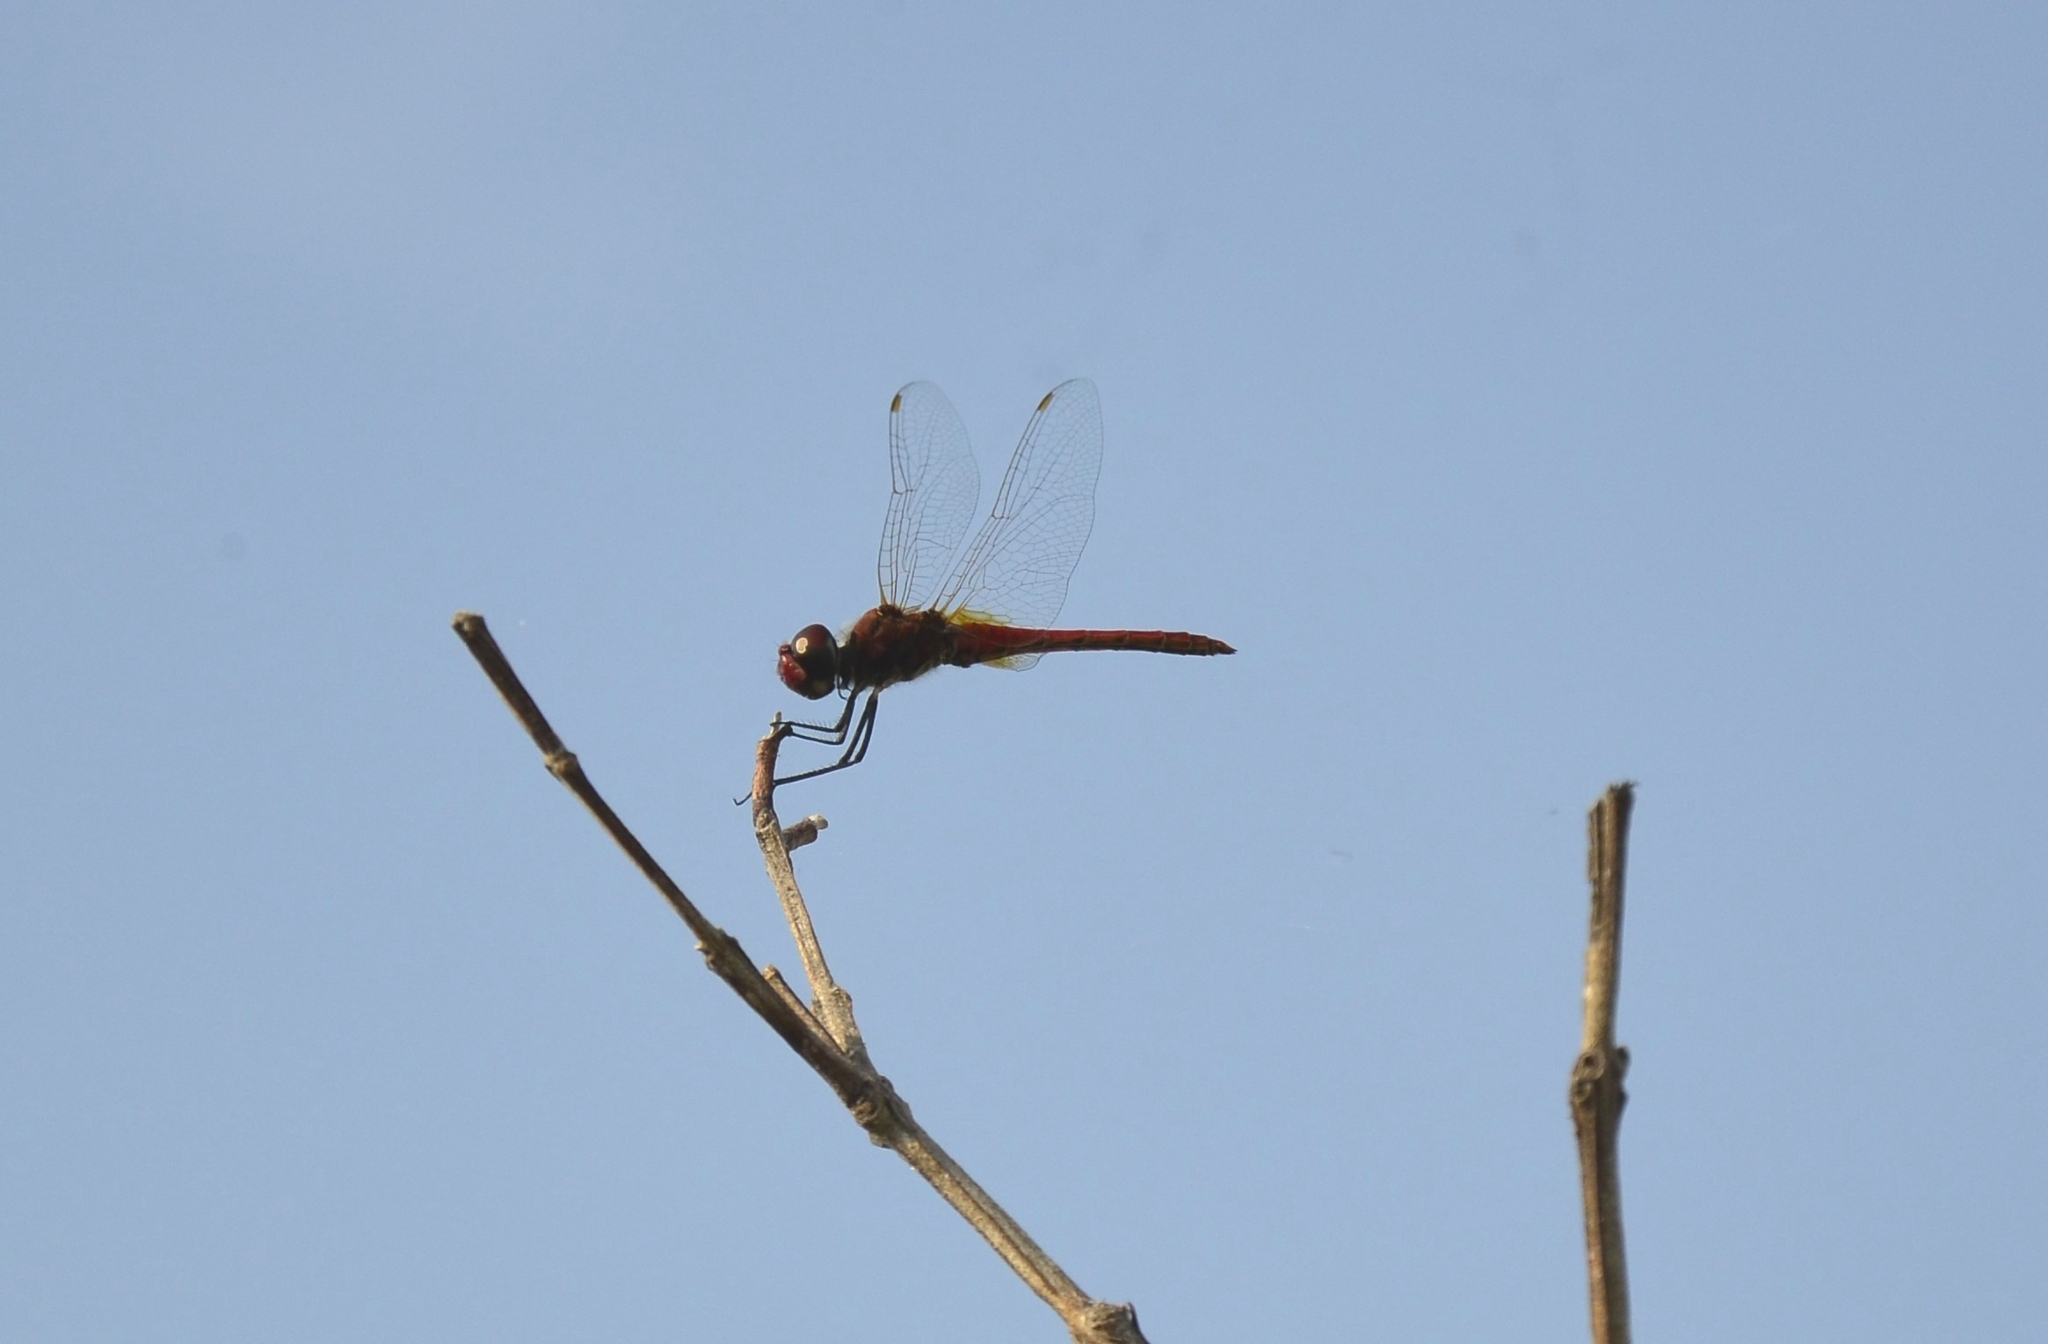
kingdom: Animalia
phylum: Arthropoda
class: Insecta
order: Odonata
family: Libellulidae
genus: Macrodiplax
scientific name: Macrodiplax cora
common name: Coastal glider
